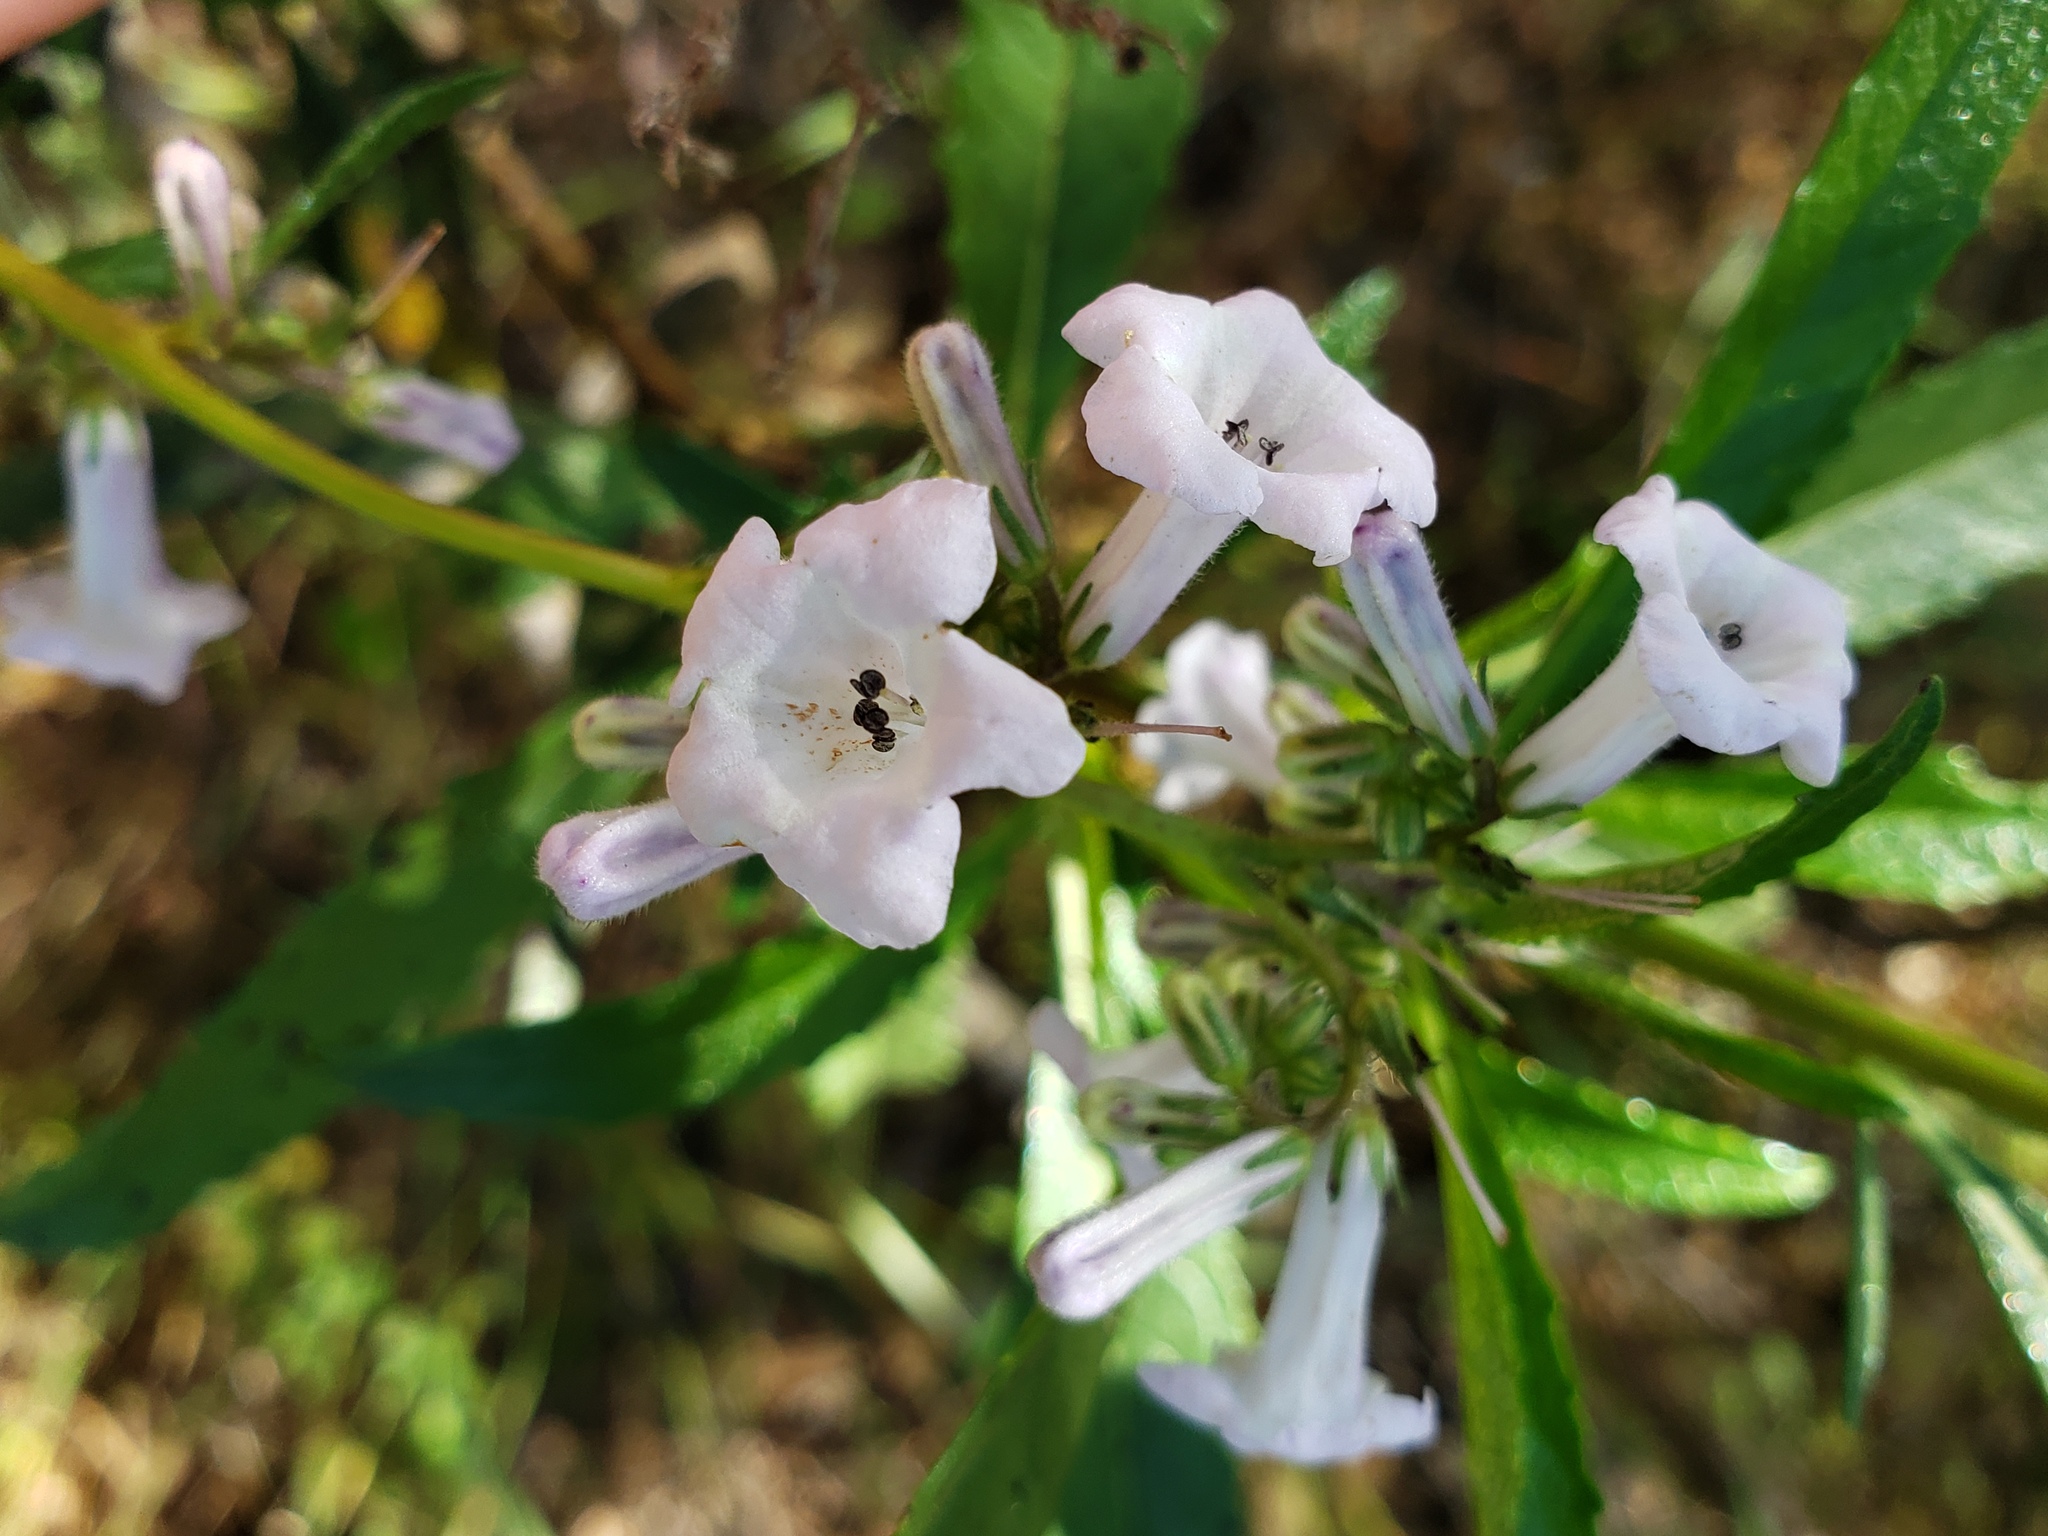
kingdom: Plantae
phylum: Tracheophyta
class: Magnoliopsida
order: Boraginales
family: Namaceae
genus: Eriodictyon
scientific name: Eriodictyon californicum
